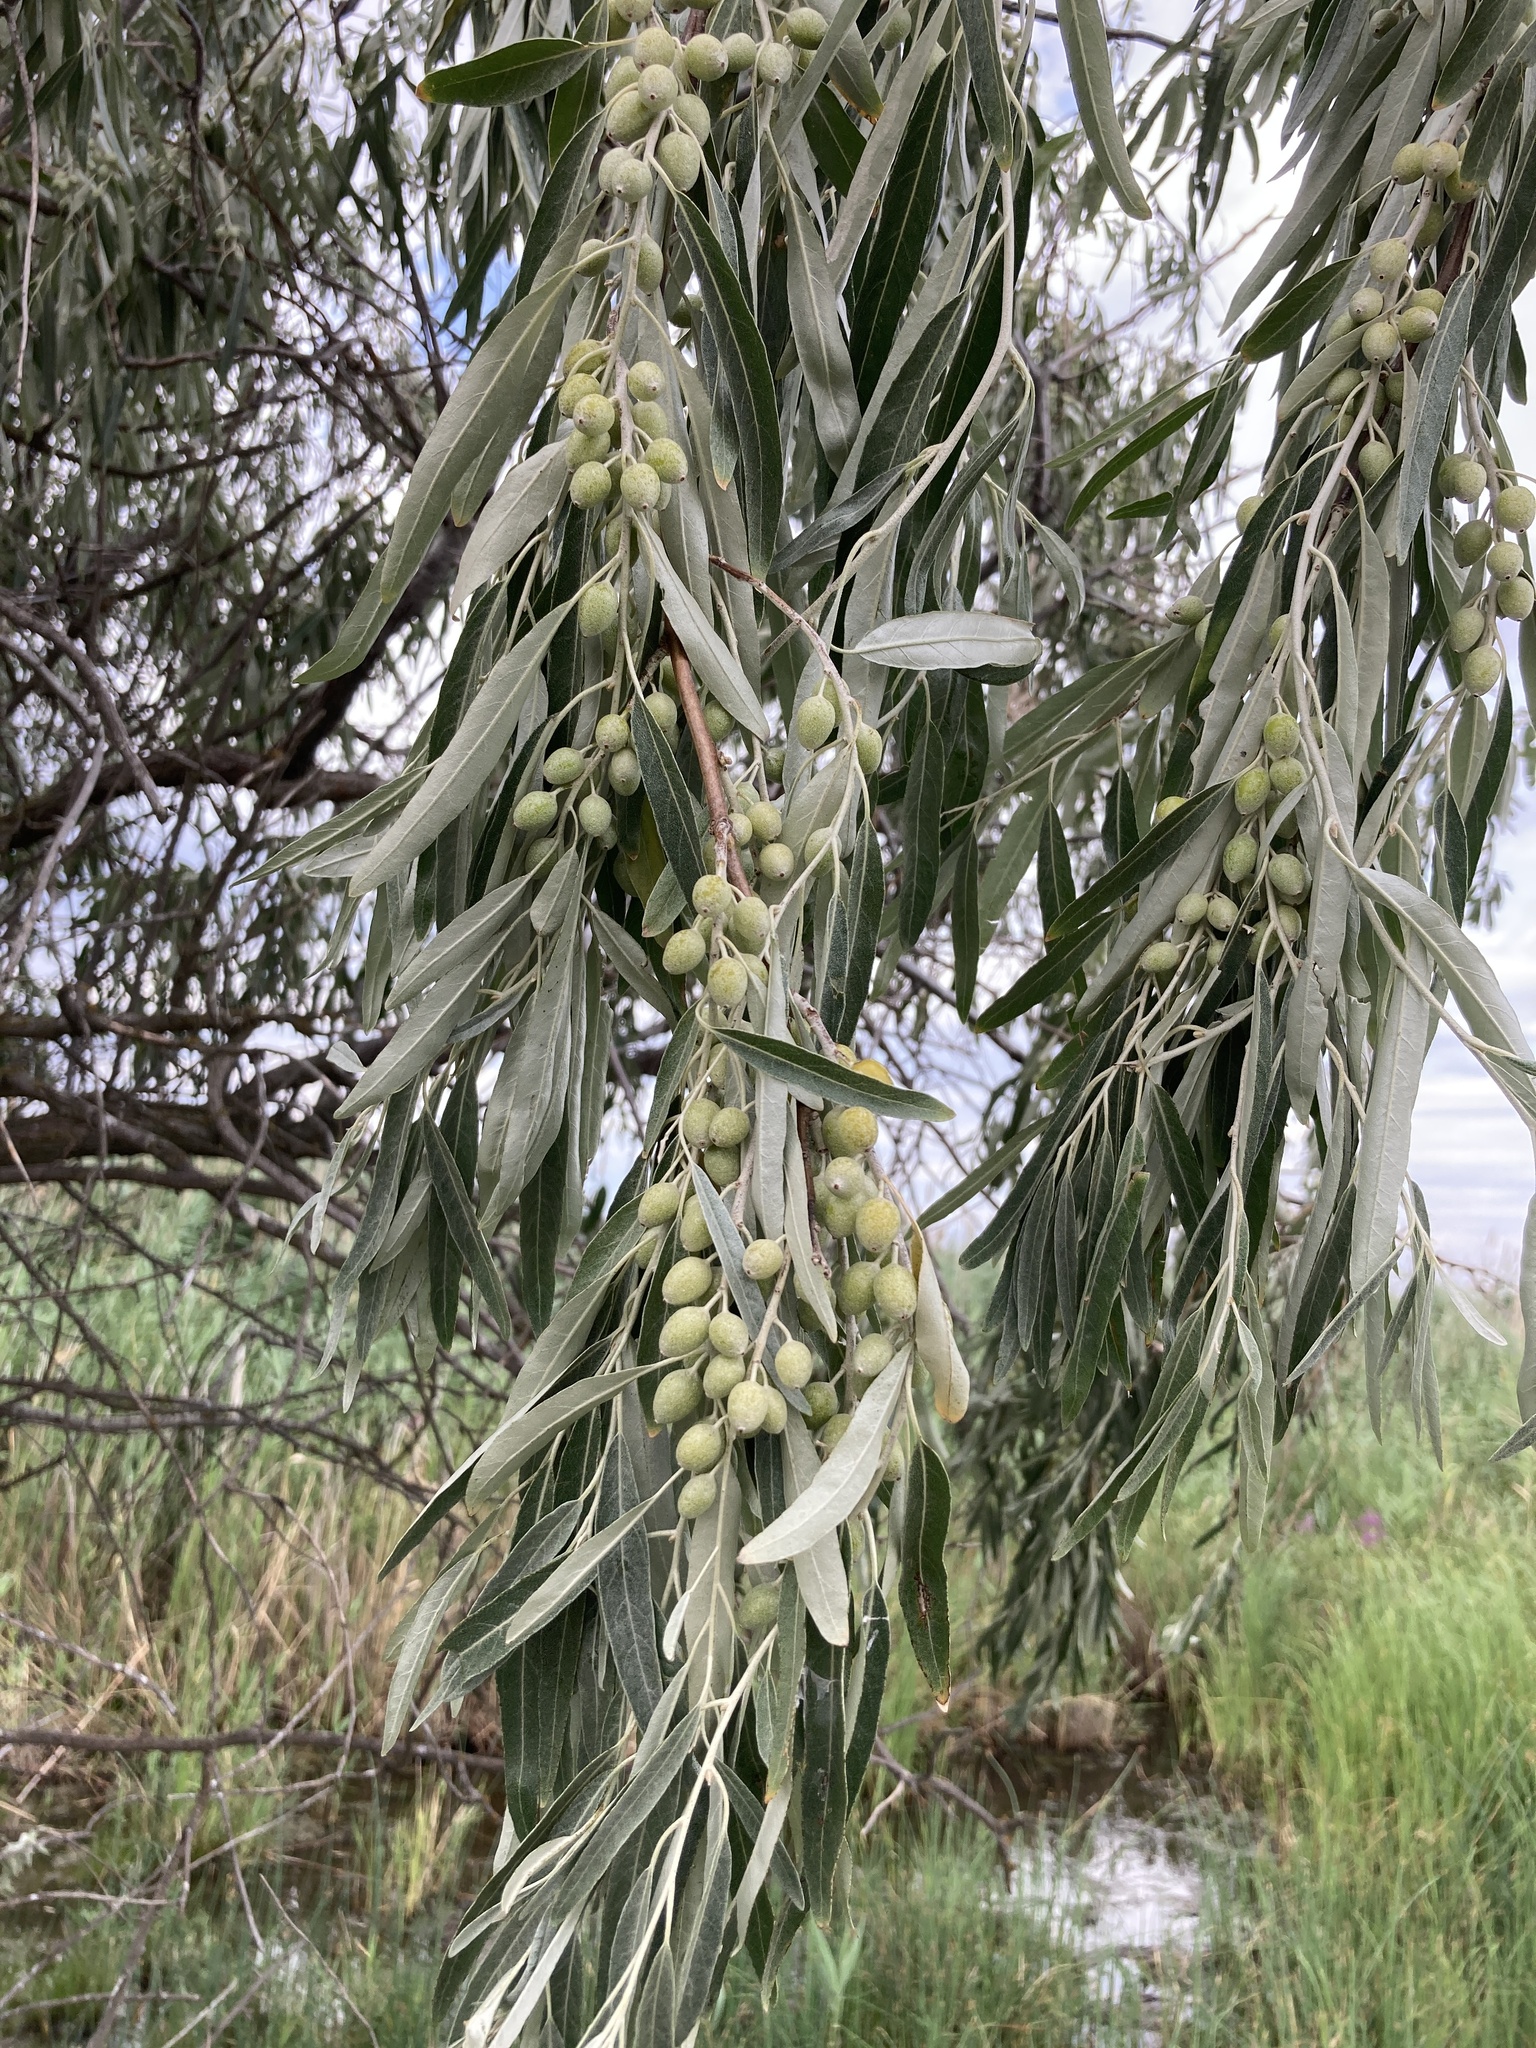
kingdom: Plantae
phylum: Tracheophyta
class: Magnoliopsida
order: Rosales
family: Elaeagnaceae
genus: Elaeagnus
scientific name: Elaeagnus angustifolia
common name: Russian olive
